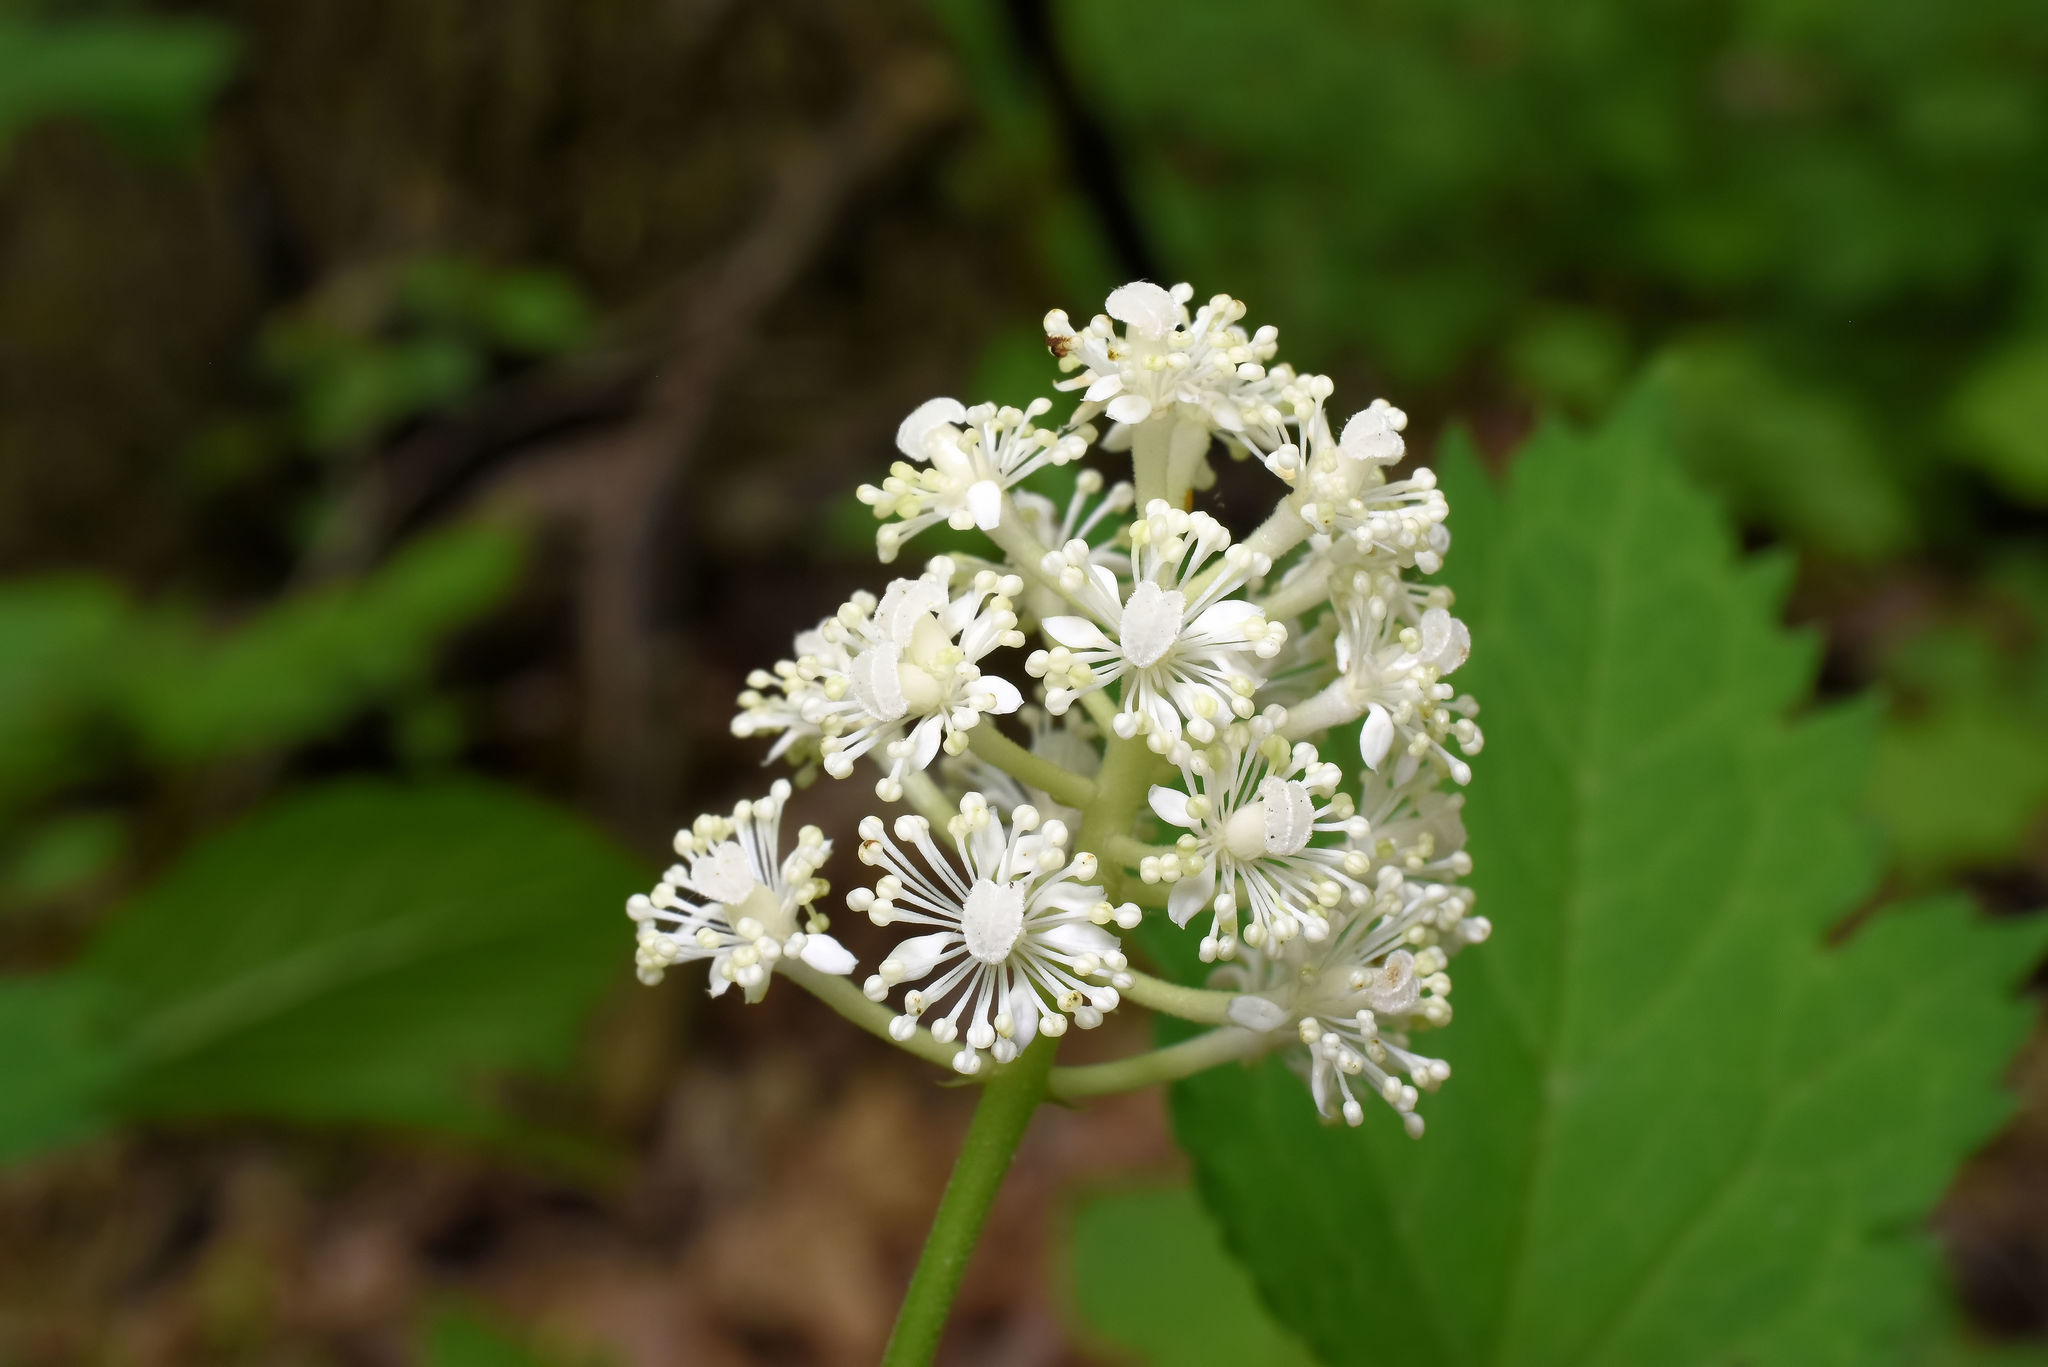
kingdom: Plantae
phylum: Tracheophyta
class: Magnoliopsida
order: Ranunculales
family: Ranunculaceae
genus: Actaea
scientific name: Actaea pachypoda
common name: Doll's-eyes
